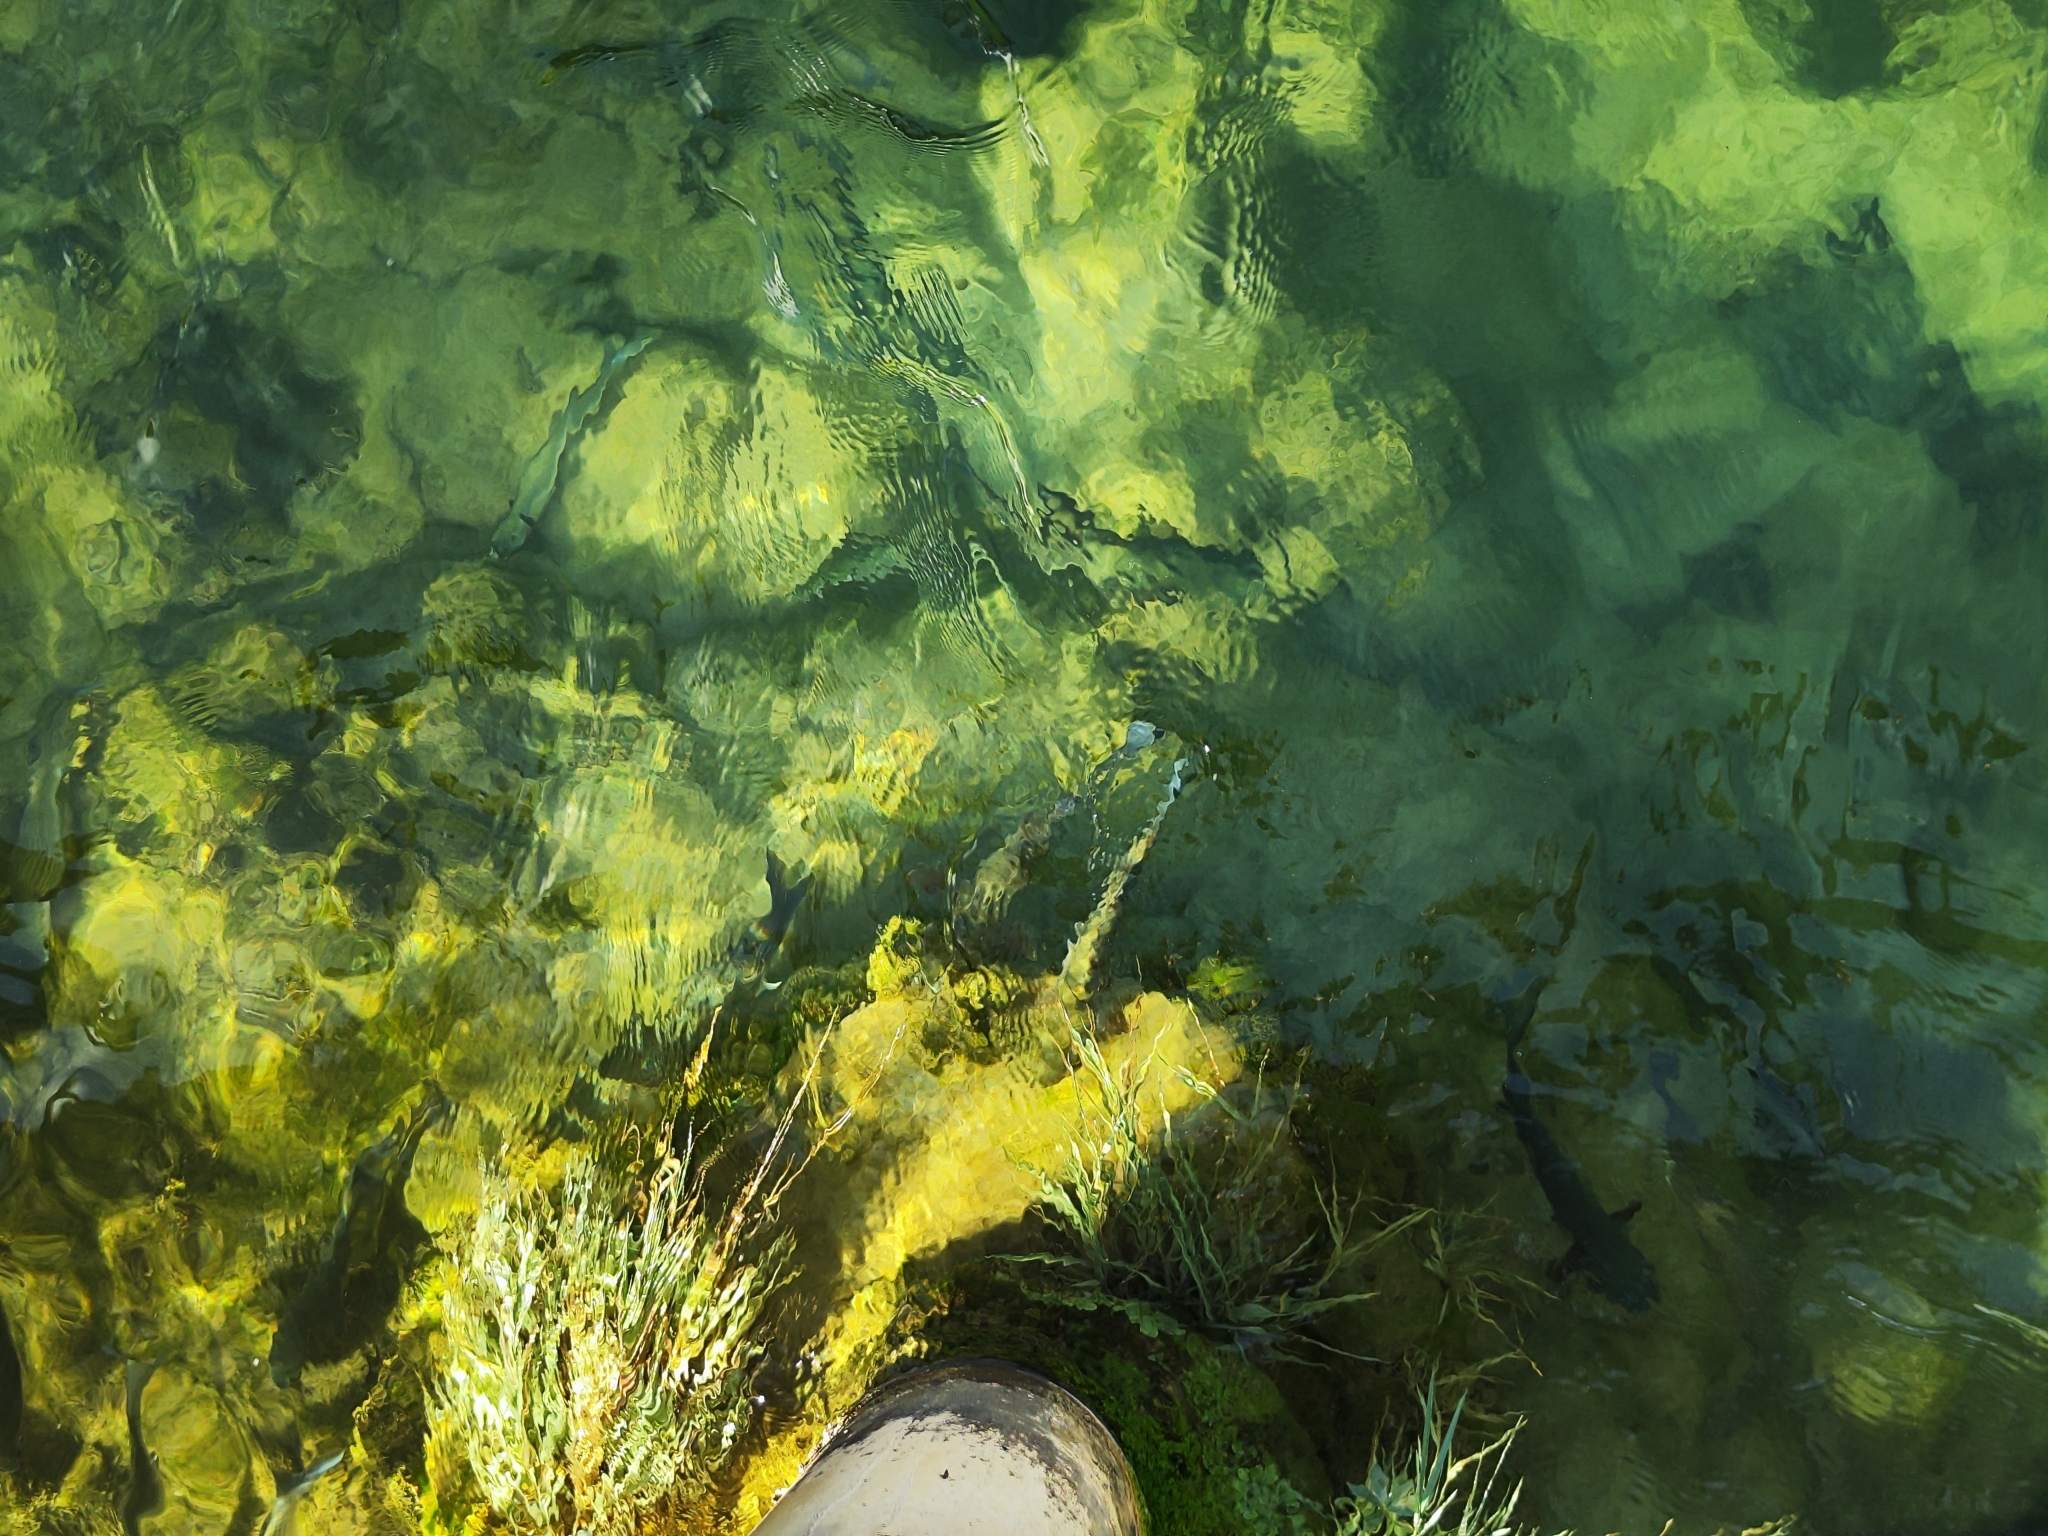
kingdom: Animalia
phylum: Chordata
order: Cypriniformes
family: Cyprinidae
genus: Squalius
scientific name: Squalius illyricus
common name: Illyrian chub
